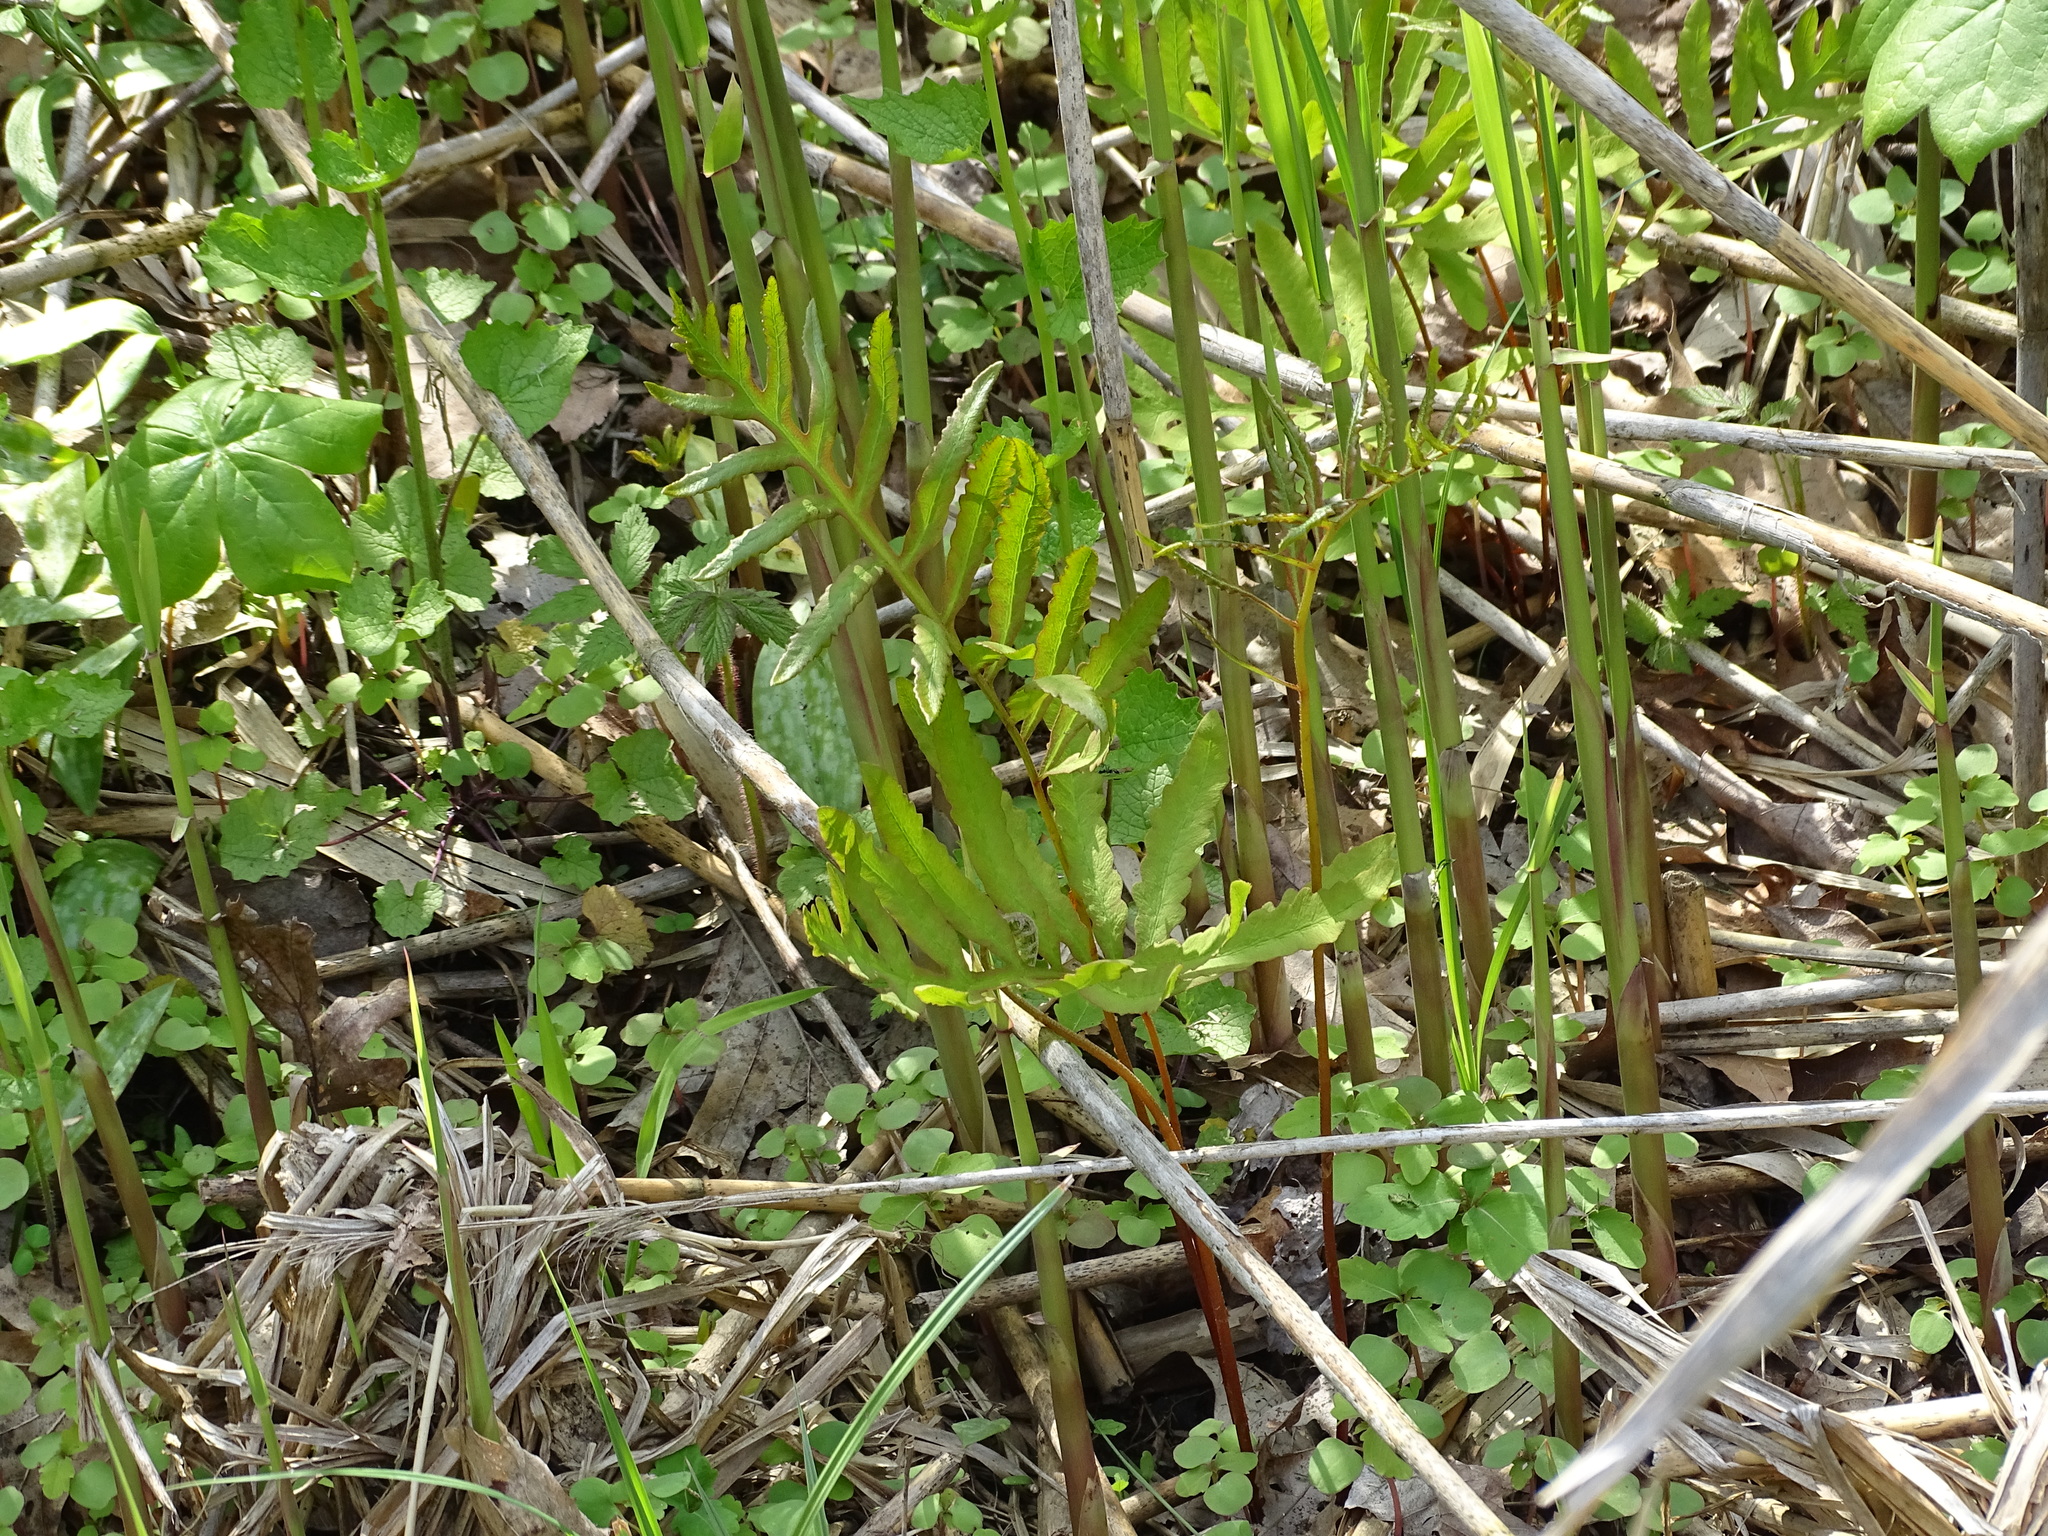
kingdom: Plantae
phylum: Tracheophyta
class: Polypodiopsida
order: Polypodiales
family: Onocleaceae
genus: Onoclea
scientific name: Onoclea sensibilis
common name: Sensitive fern
